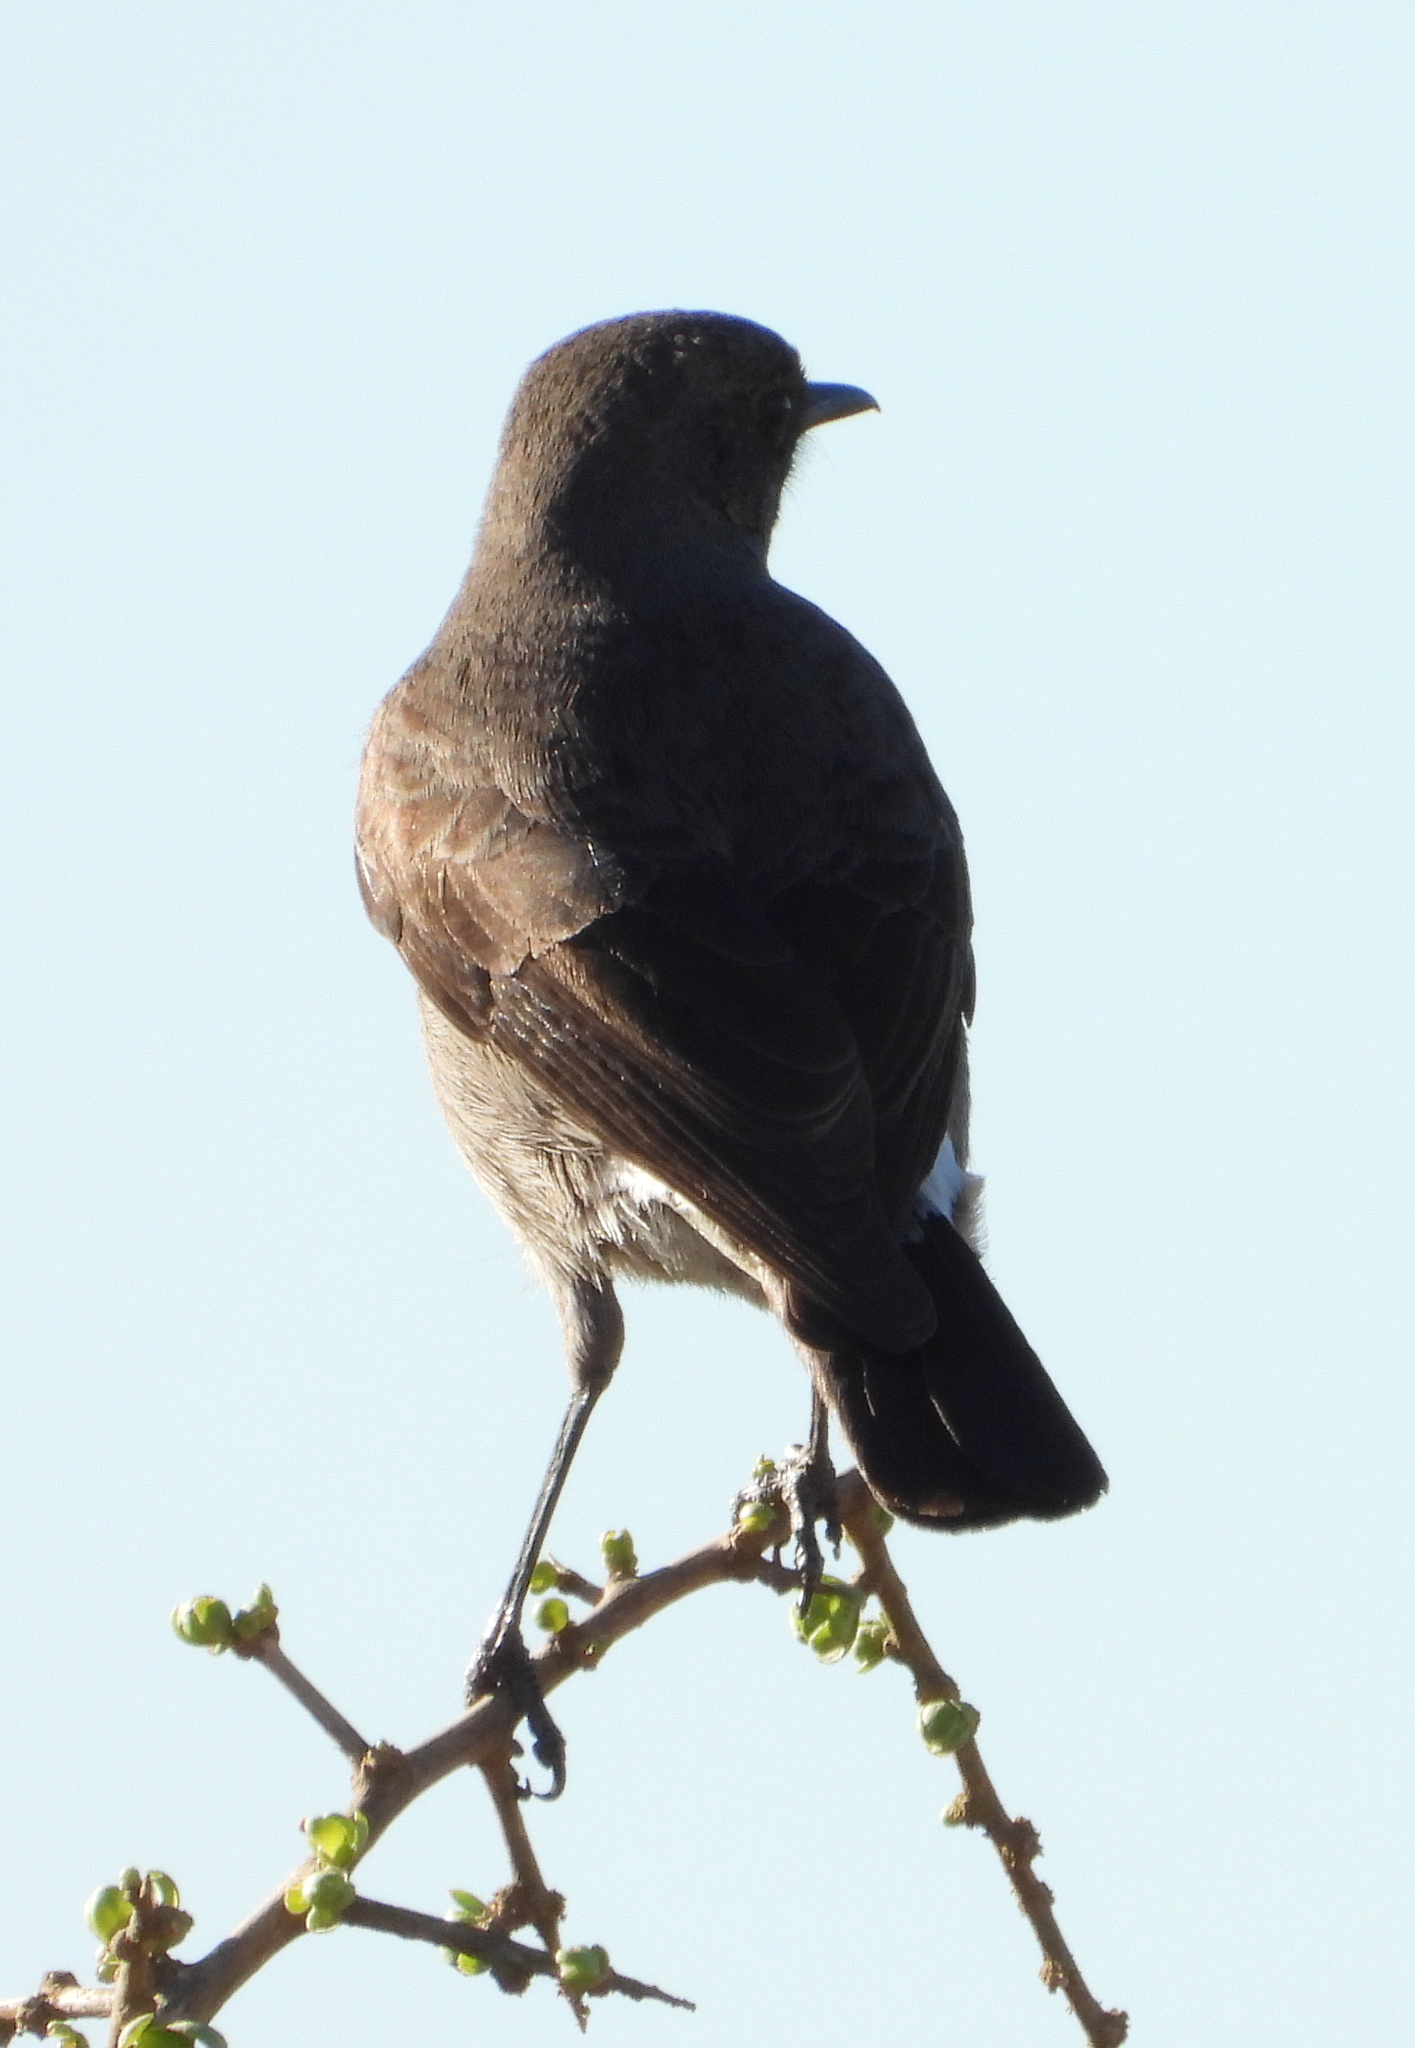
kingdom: Animalia
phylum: Chordata
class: Aves
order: Passeriformes
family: Muscicapidae
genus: Emarginata
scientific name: Emarginata schlegelii
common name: Karoo chat
